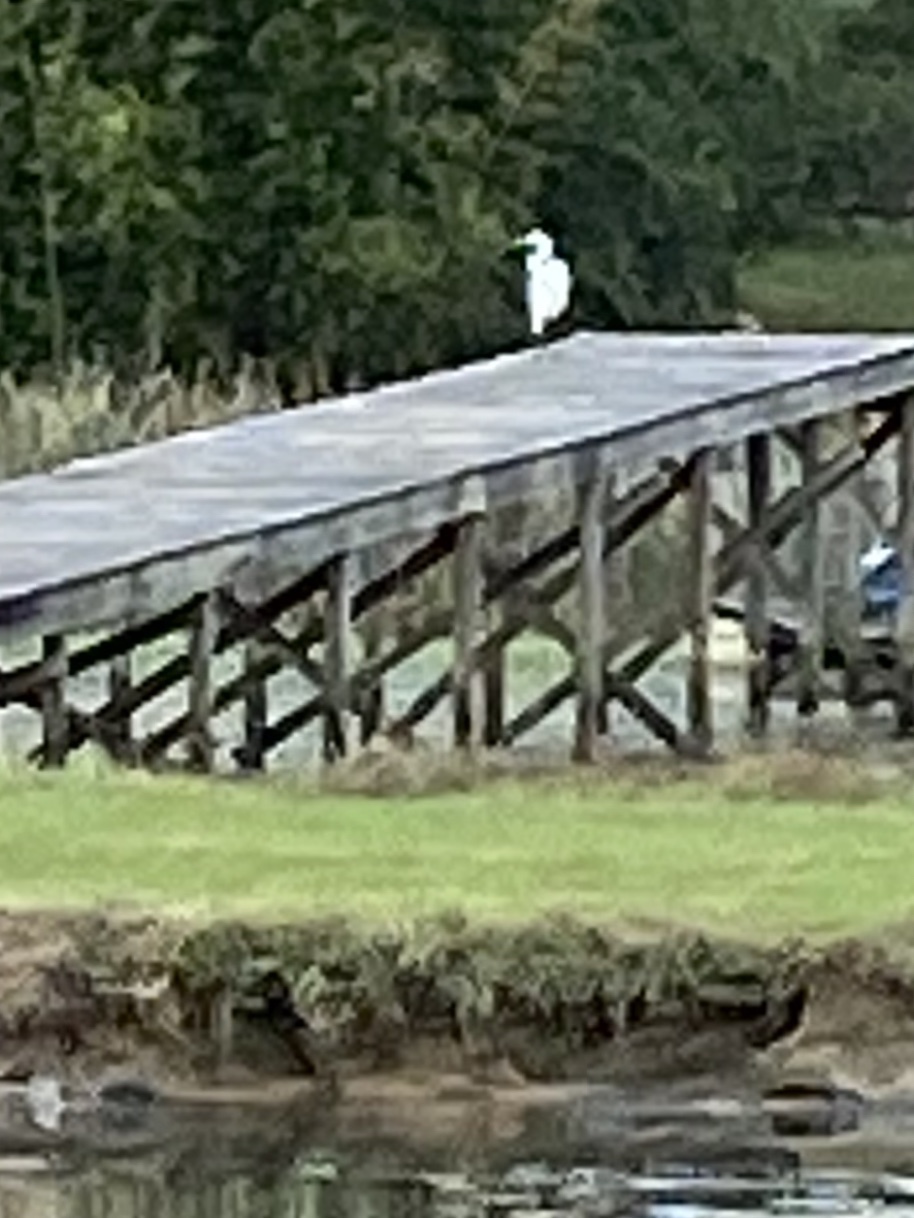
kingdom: Animalia
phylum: Chordata
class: Aves
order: Pelecaniformes
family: Ardeidae
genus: Ardea
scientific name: Ardea alba
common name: Great egret
